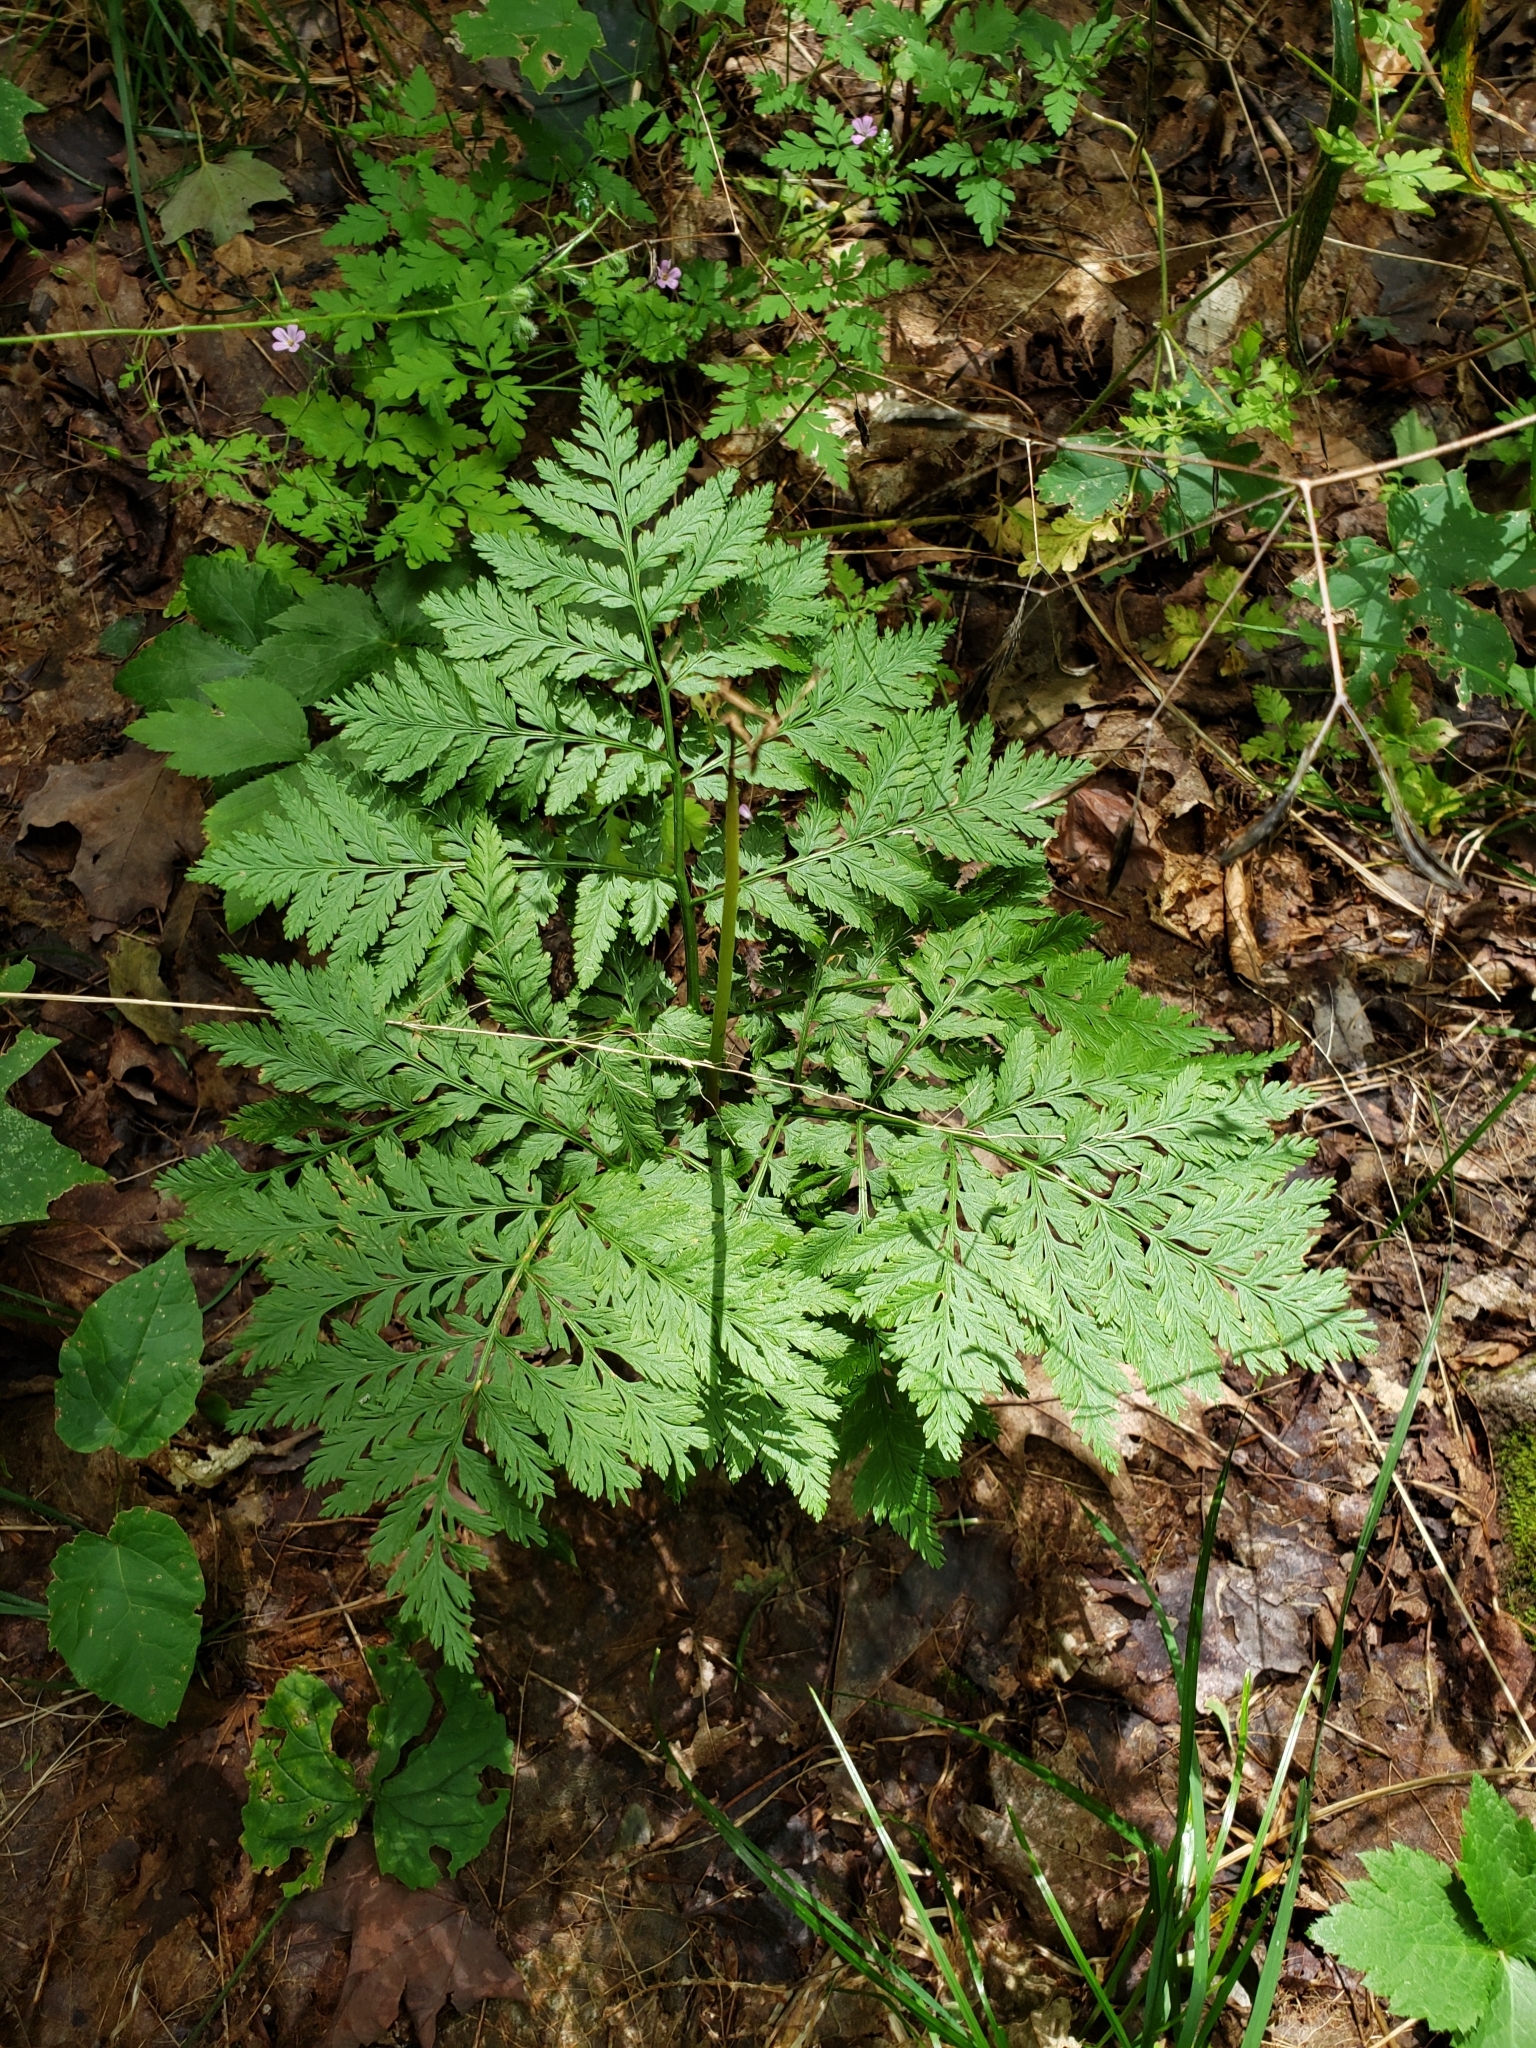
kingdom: Plantae
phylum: Tracheophyta
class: Polypodiopsida
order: Ophioglossales
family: Ophioglossaceae
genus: Botrypus
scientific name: Botrypus virginianus
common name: Common grapefern
